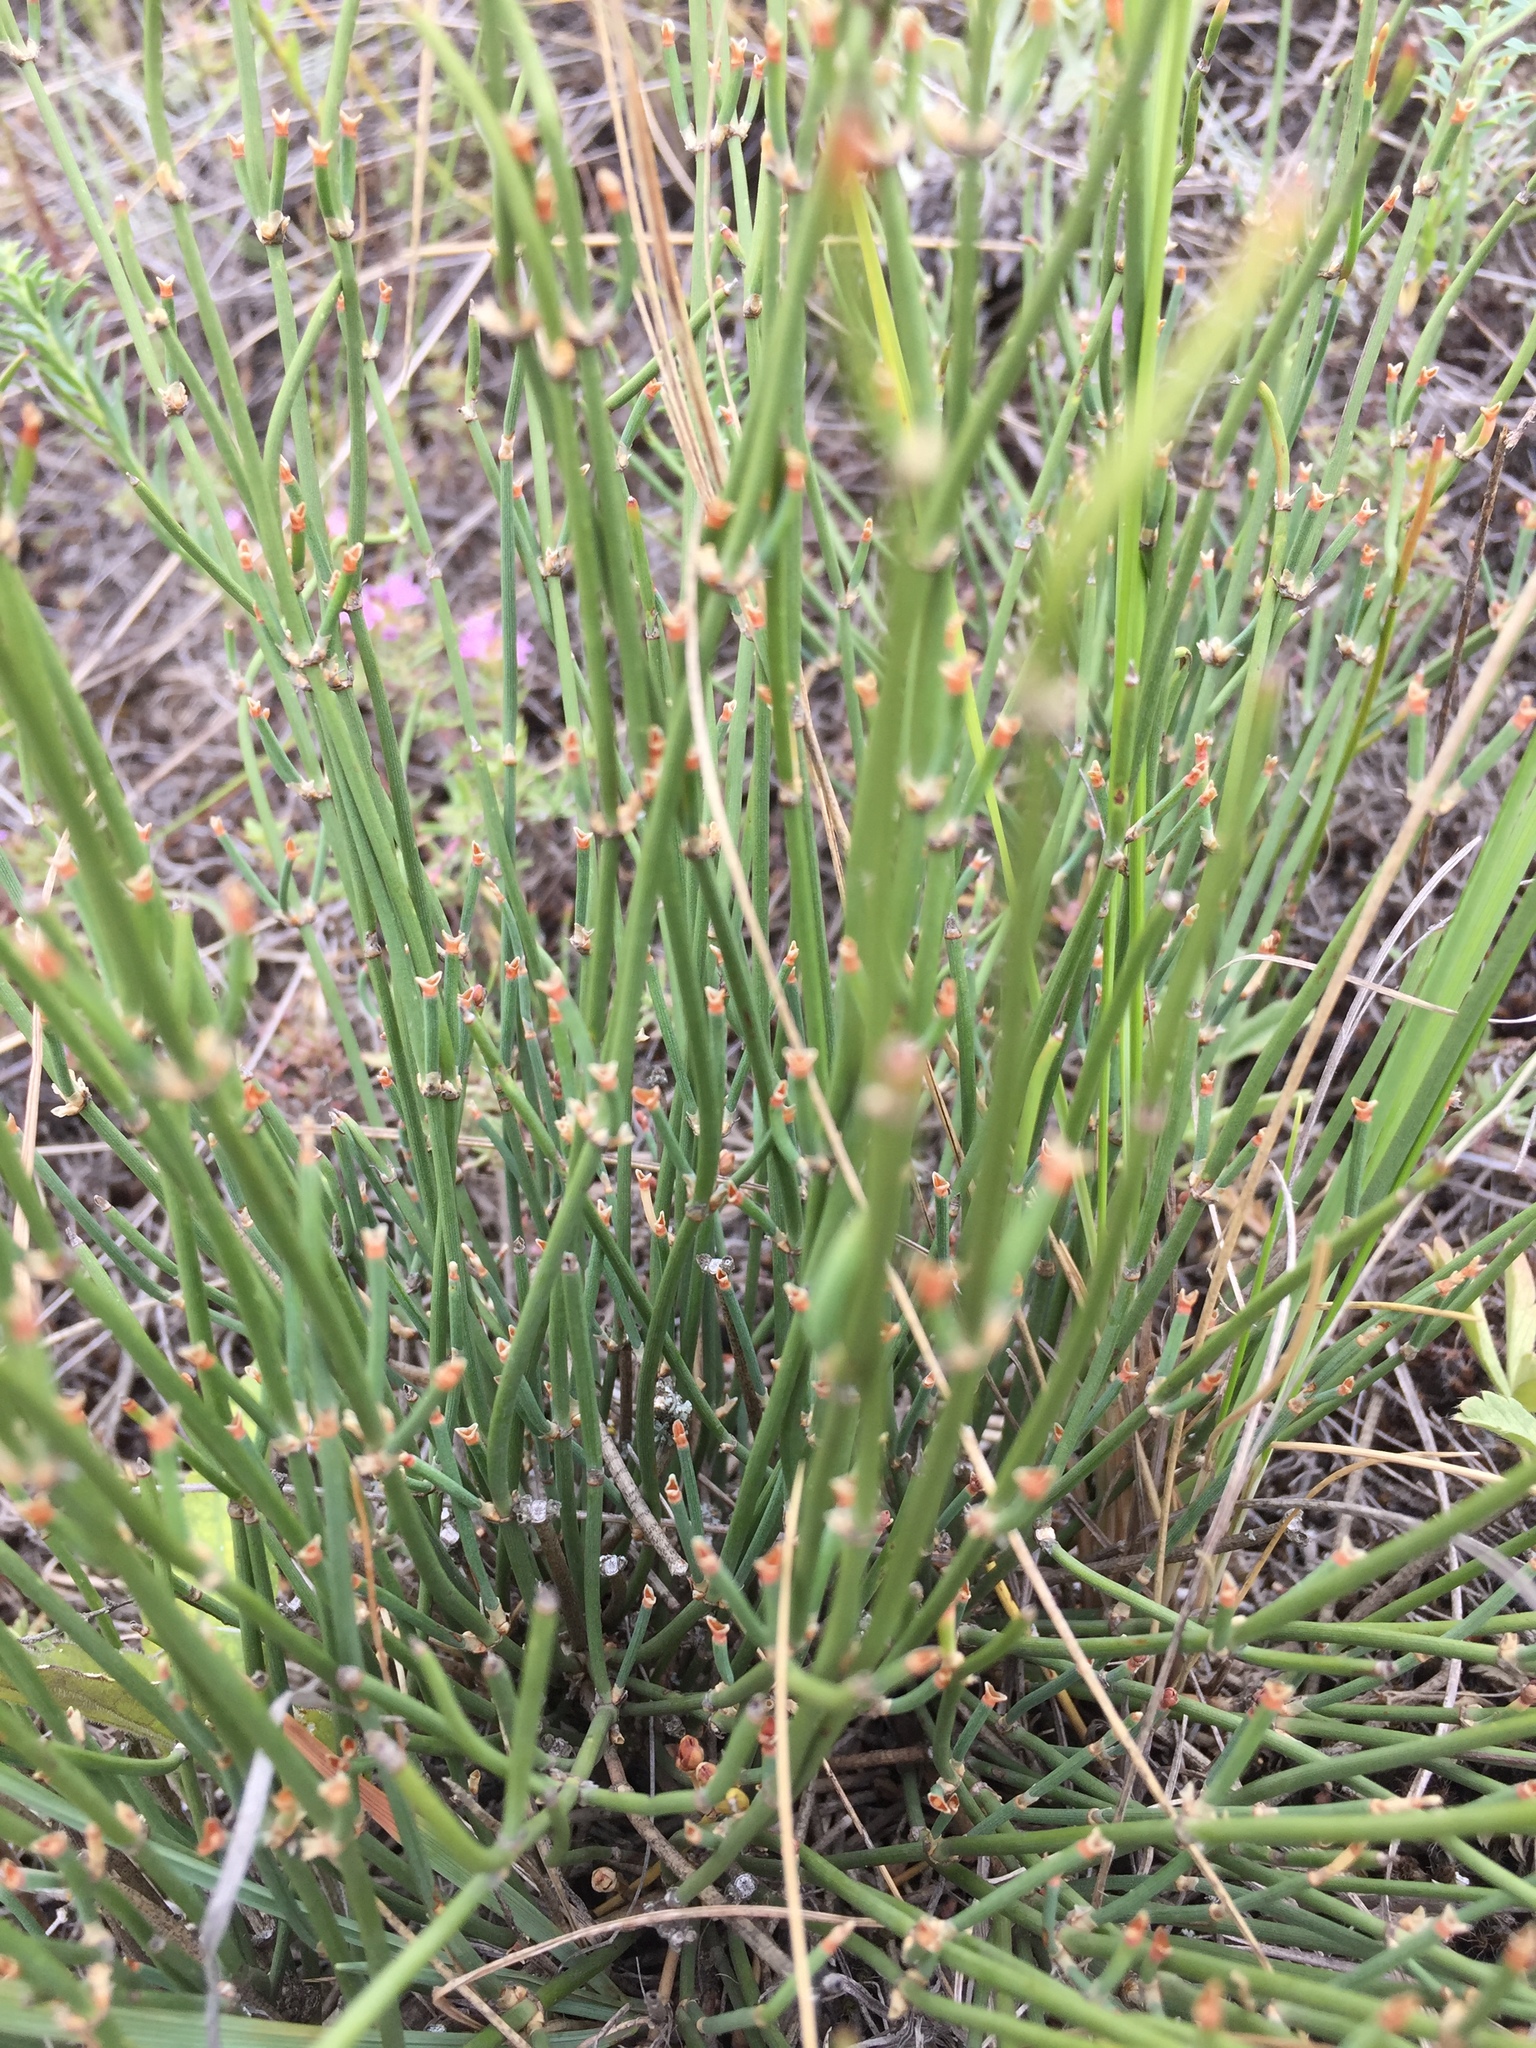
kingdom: Plantae
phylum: Tracheophyta
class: Gnetopsida
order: Ephedrales
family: Ephedraceae
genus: Ephedra
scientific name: Ephedra distachya
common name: Sea grape
